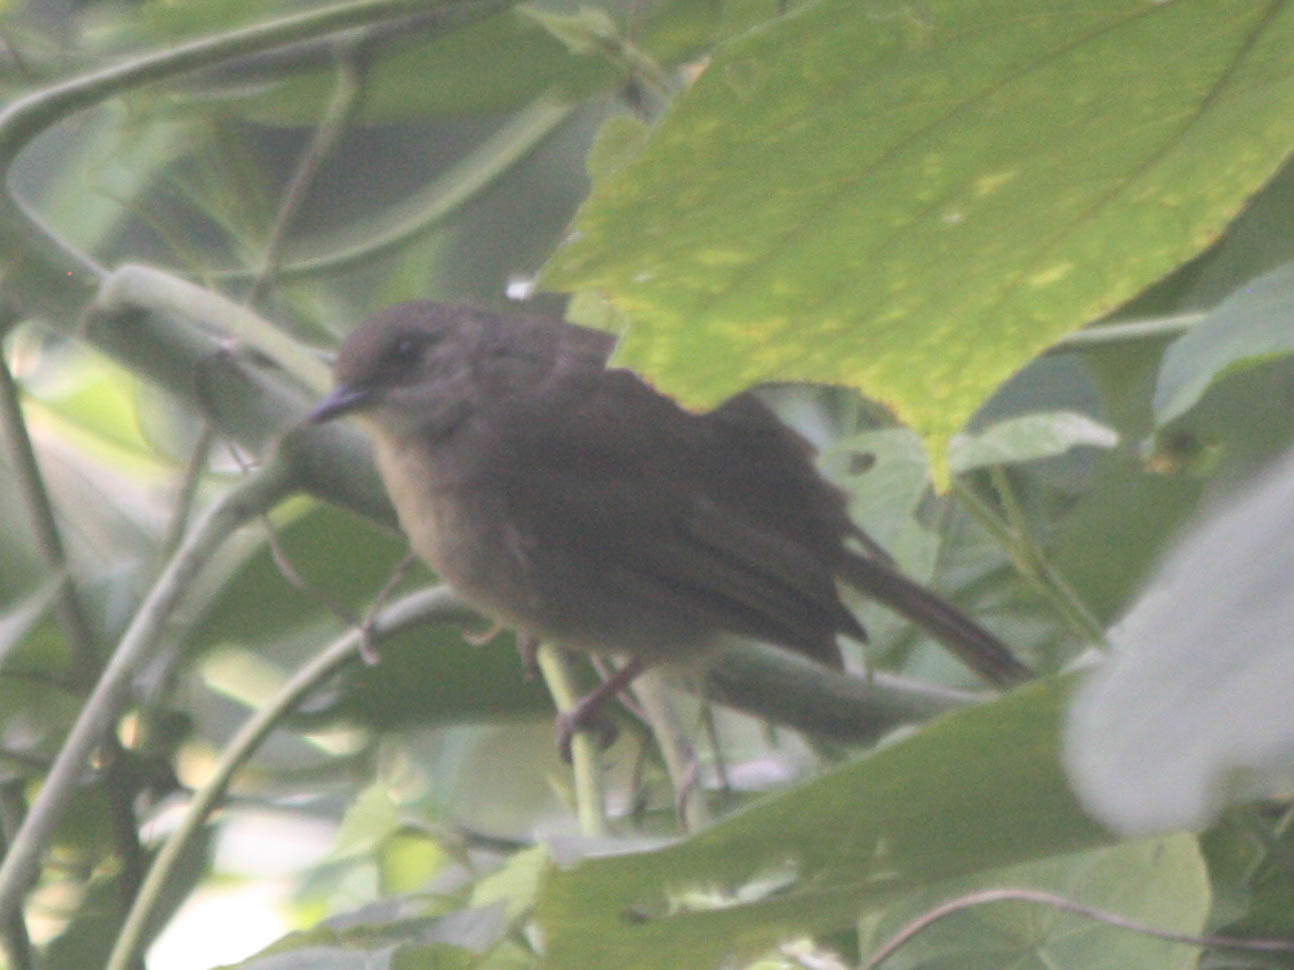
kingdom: Animalia
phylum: Chordata
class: Aves
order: Passeriformes
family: Pycnonotidae
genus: Pycnonotus
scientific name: Pycnonotus plumosus
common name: Olive-winged bulbul
